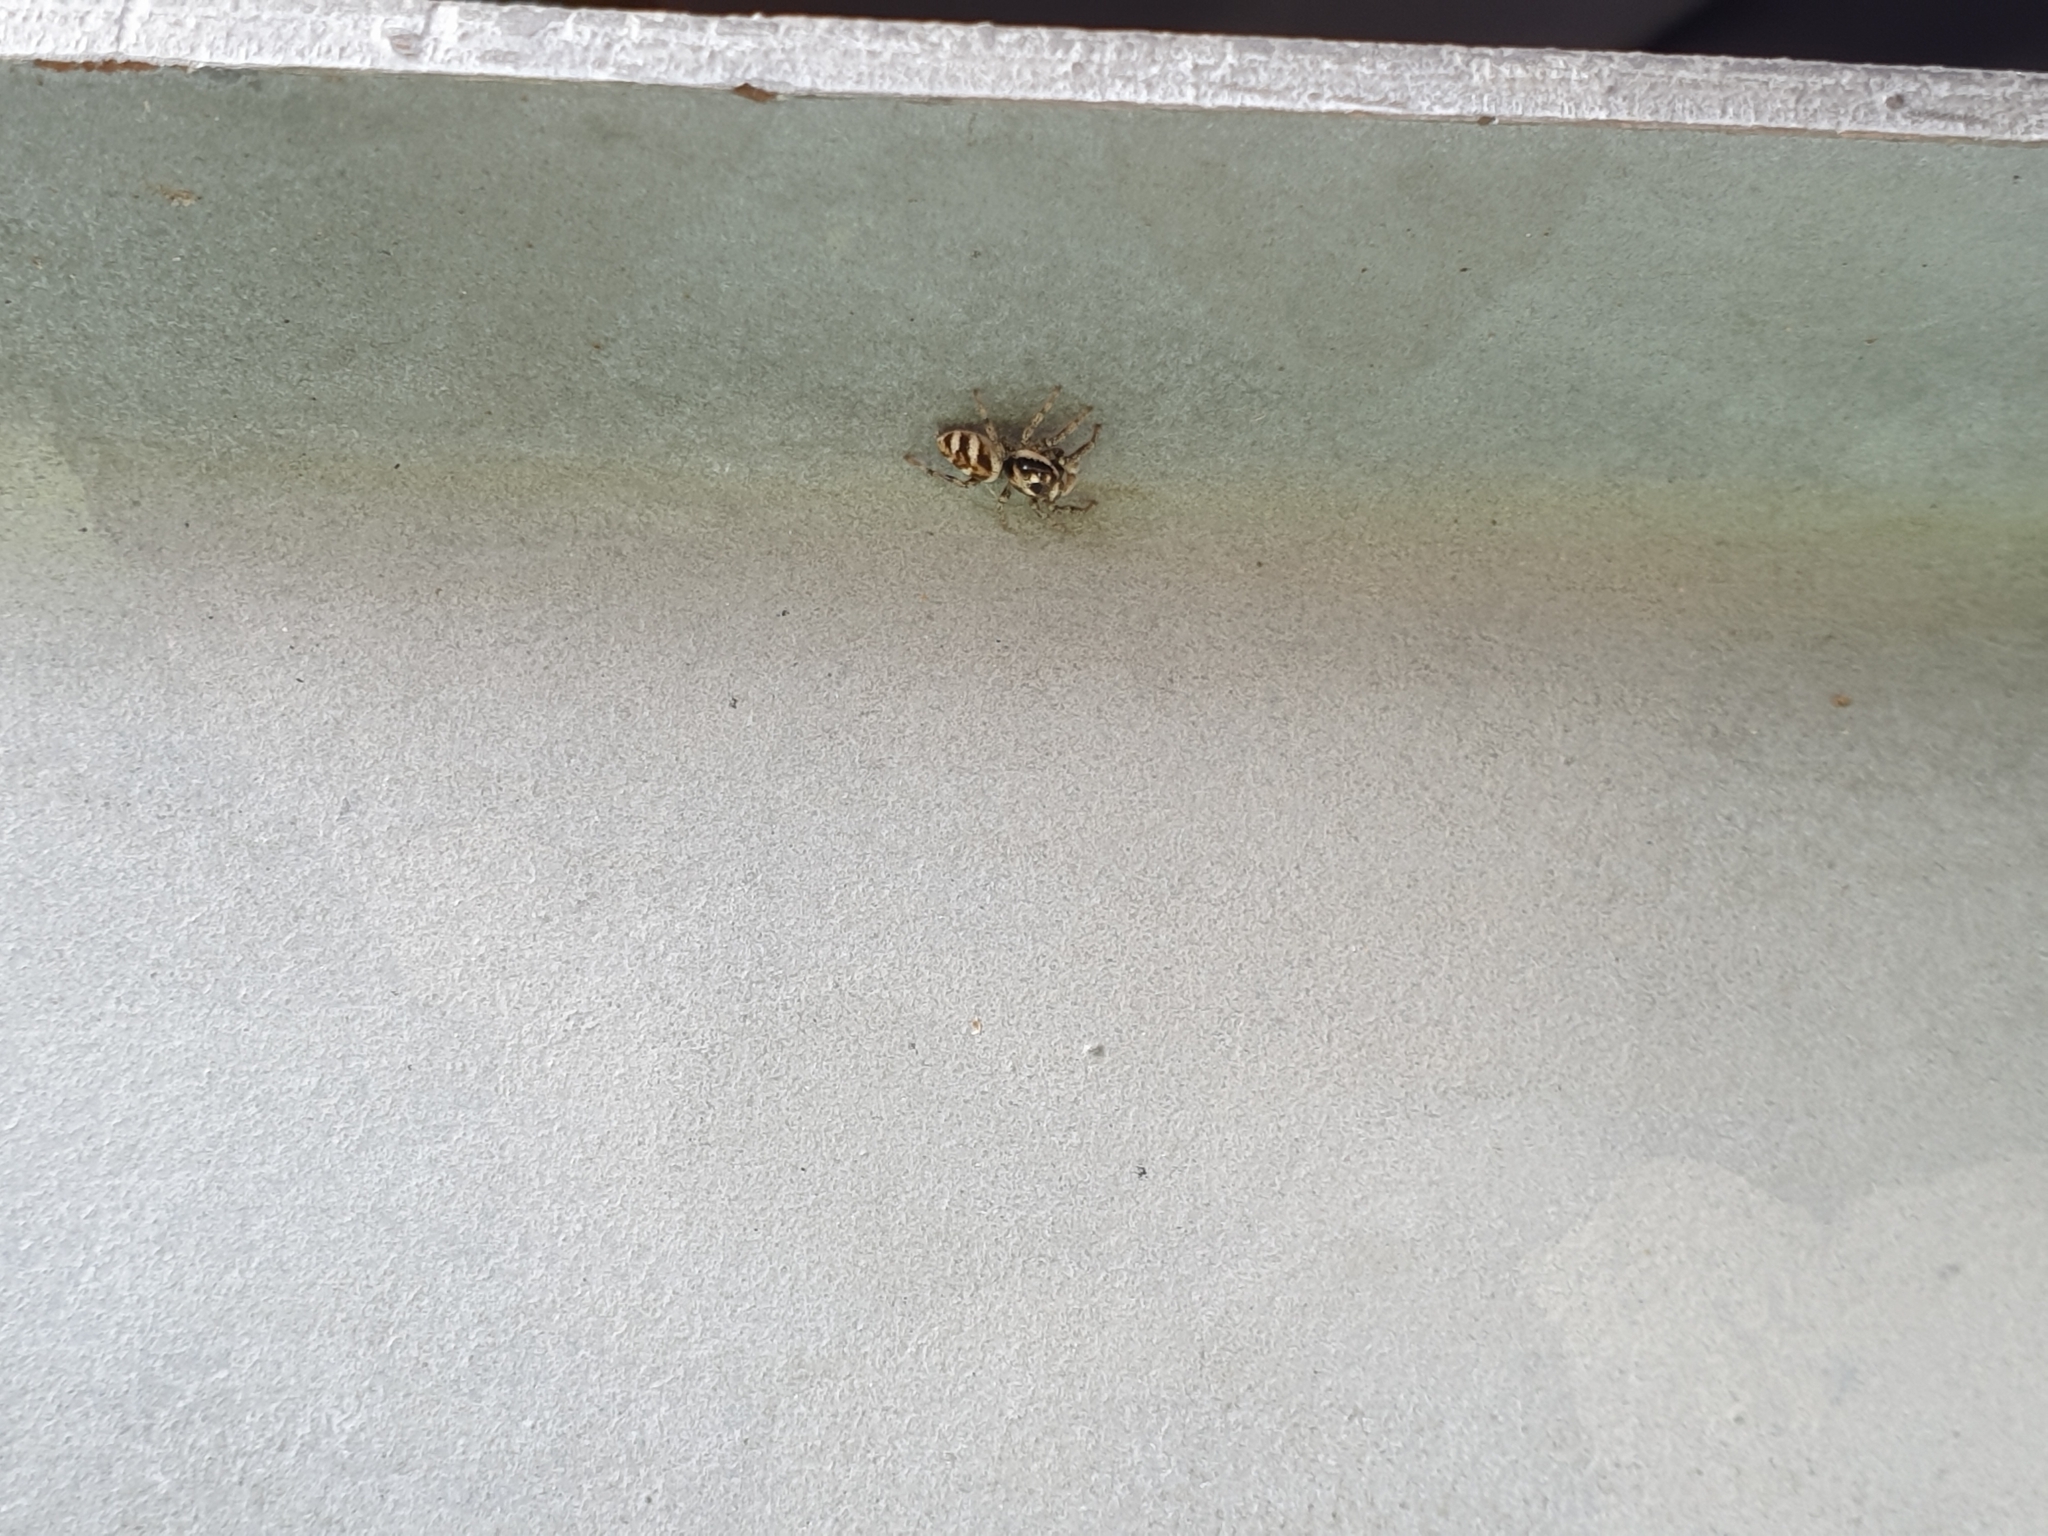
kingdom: Animalia
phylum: Arthropoda
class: Arachnida
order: Araneae
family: Salticidae
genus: Salticus
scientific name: Salticus scenicus
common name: Zebra jumper
